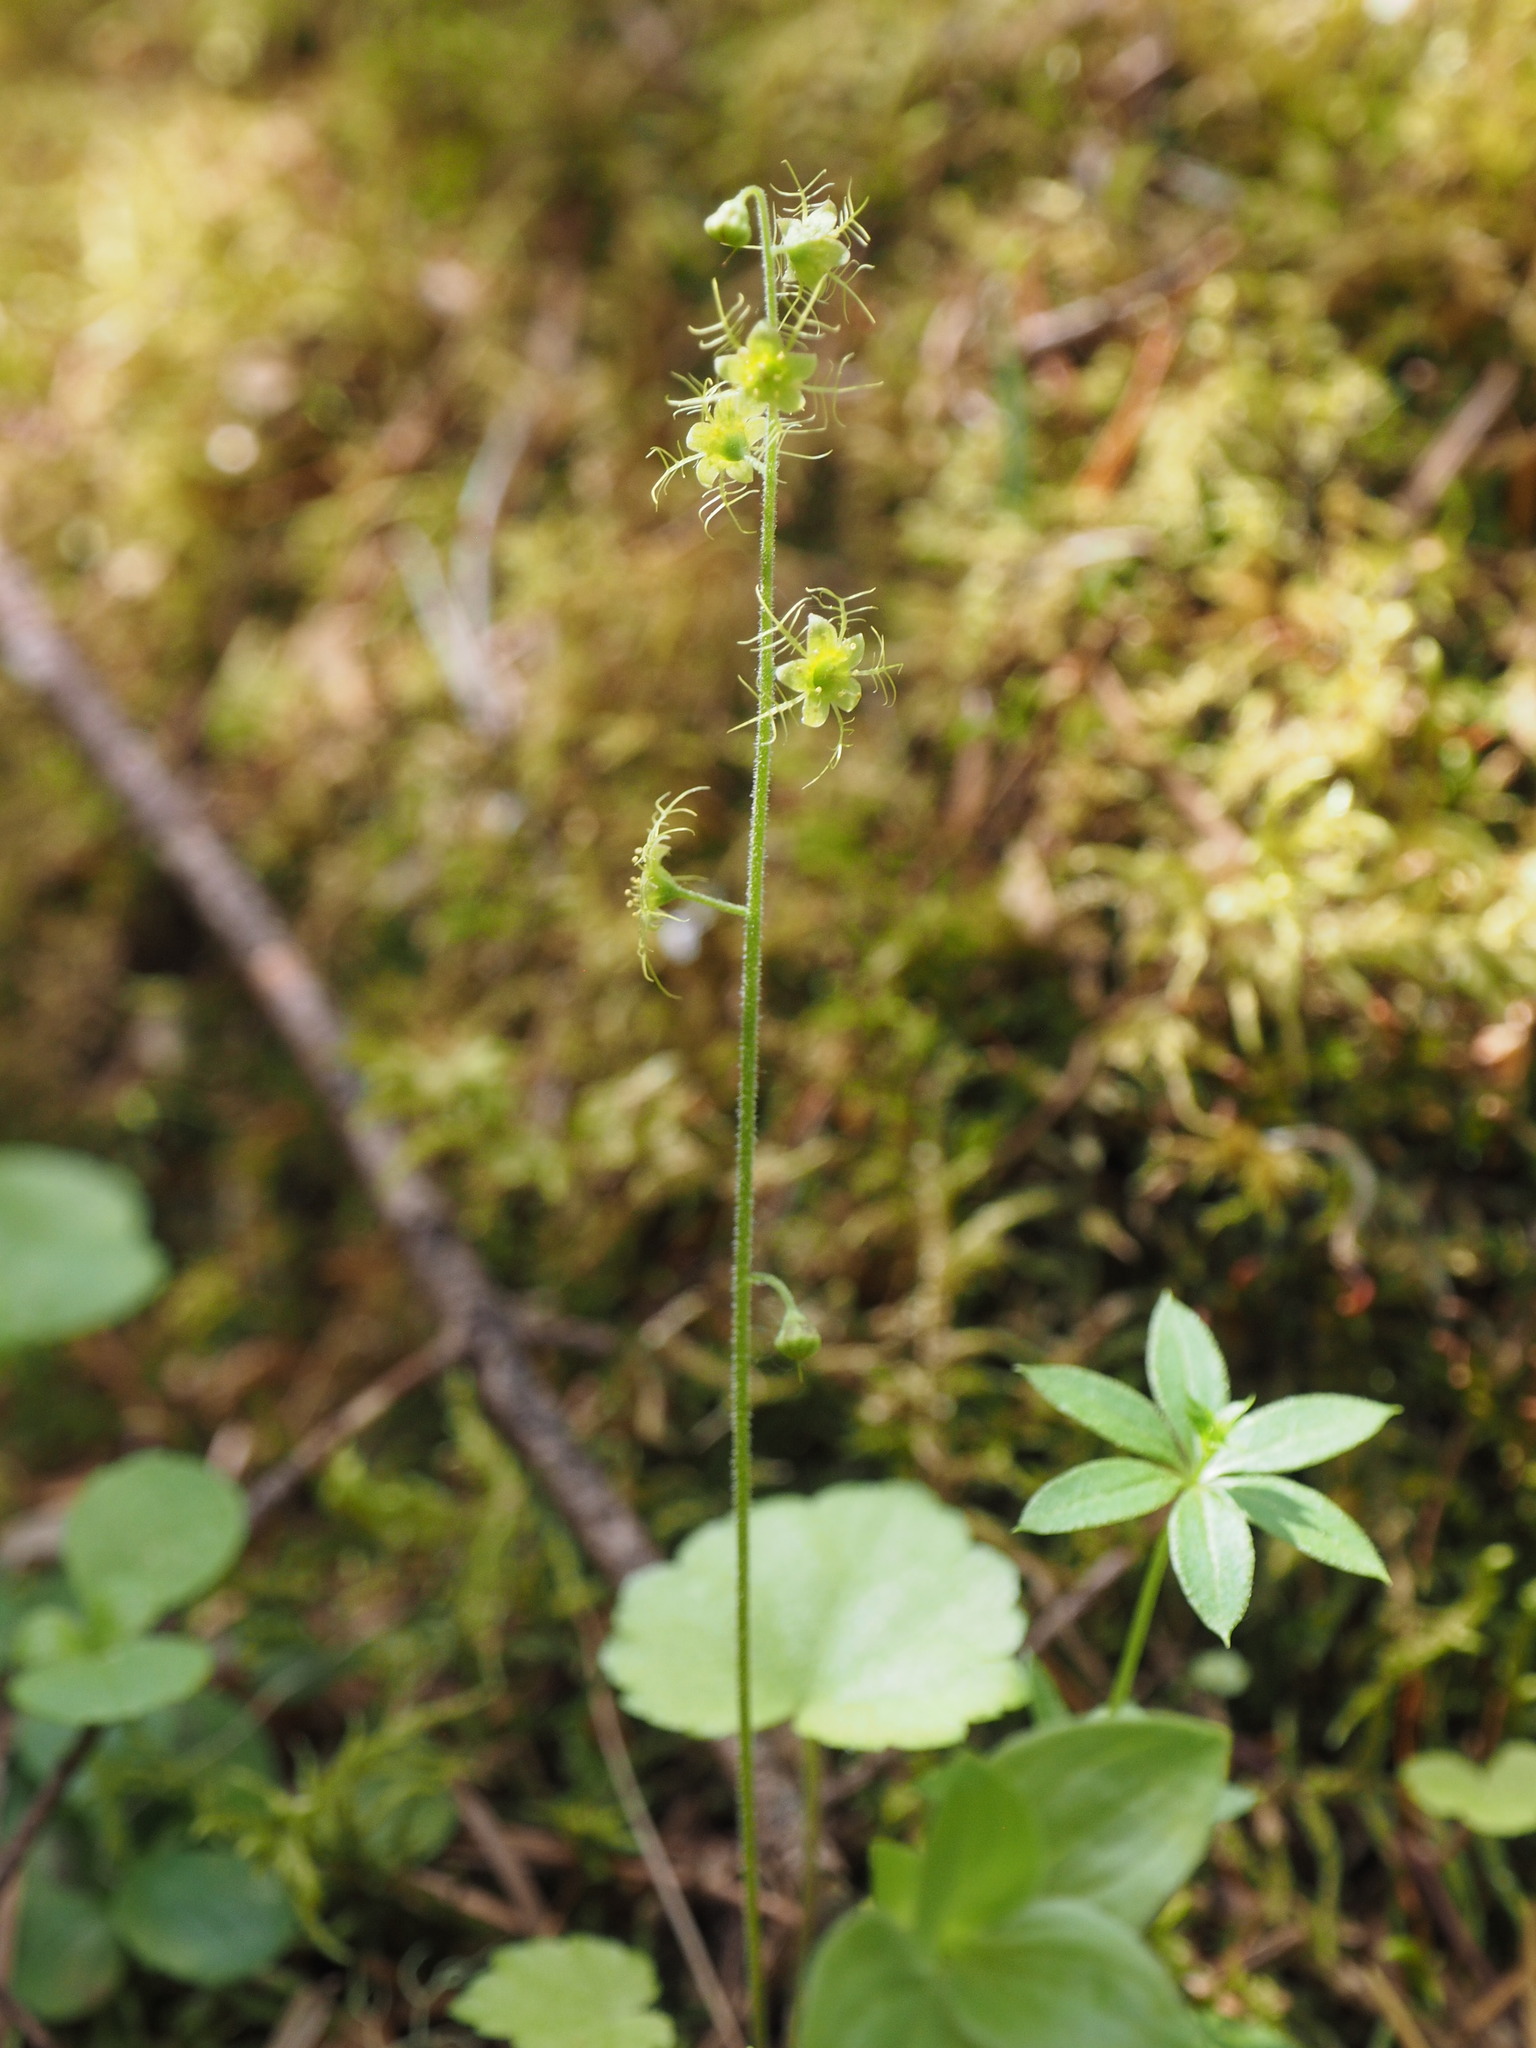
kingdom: Plantae
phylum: Tracheophyta
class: Magnoliopsida
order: Saxifragales
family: Saxifragaceae
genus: Mitella
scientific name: Mitella nuda
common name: Bare-stemmed bishop's-cap
